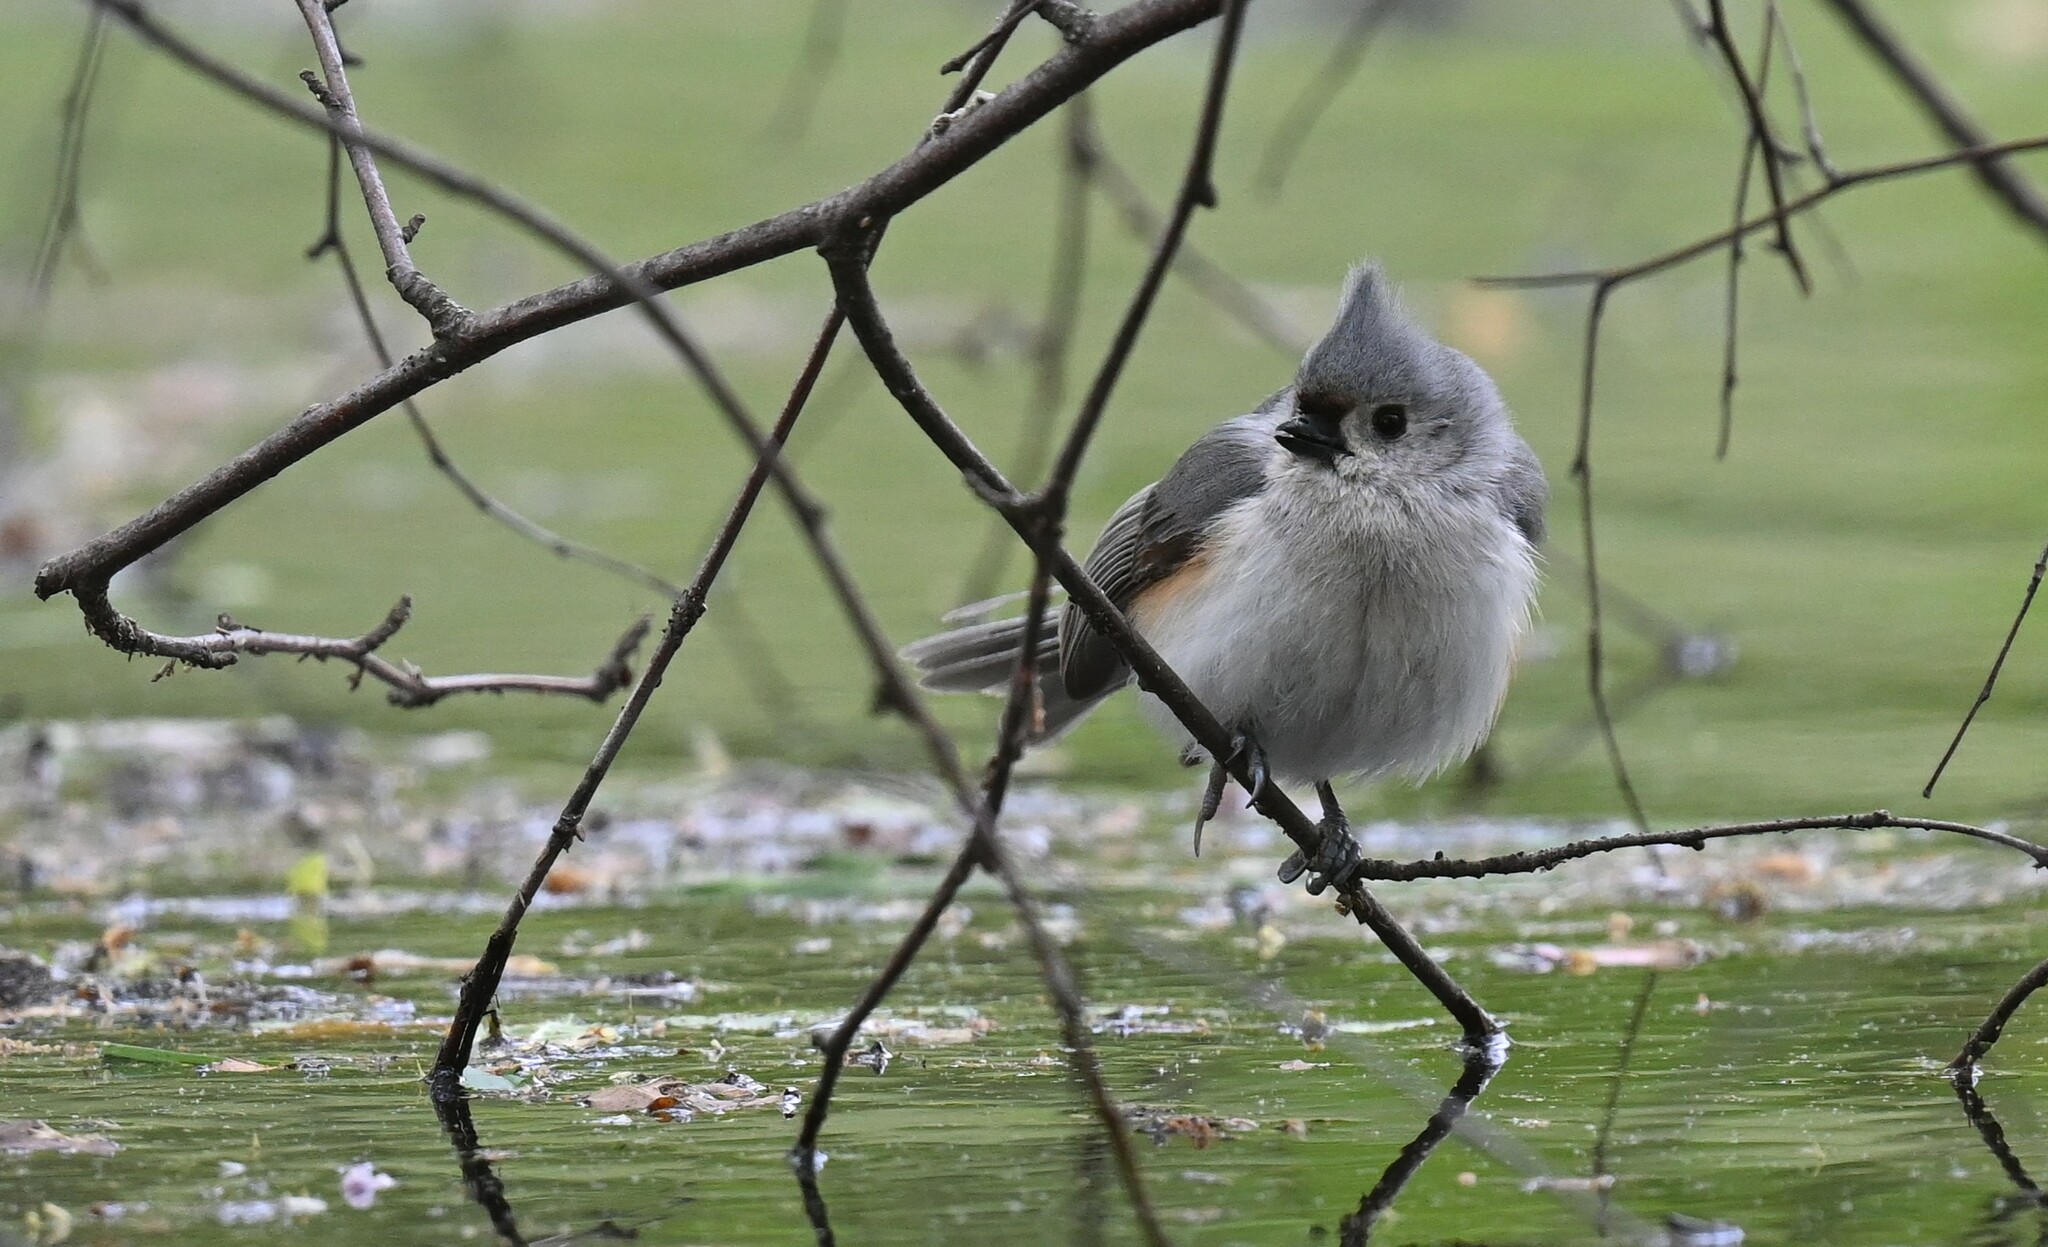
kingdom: Animalia
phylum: Chordata
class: Aves
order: Passeriformes
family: Paridae
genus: Baeolophus
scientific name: Baeolophus bicolor
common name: Tufted titmouse
